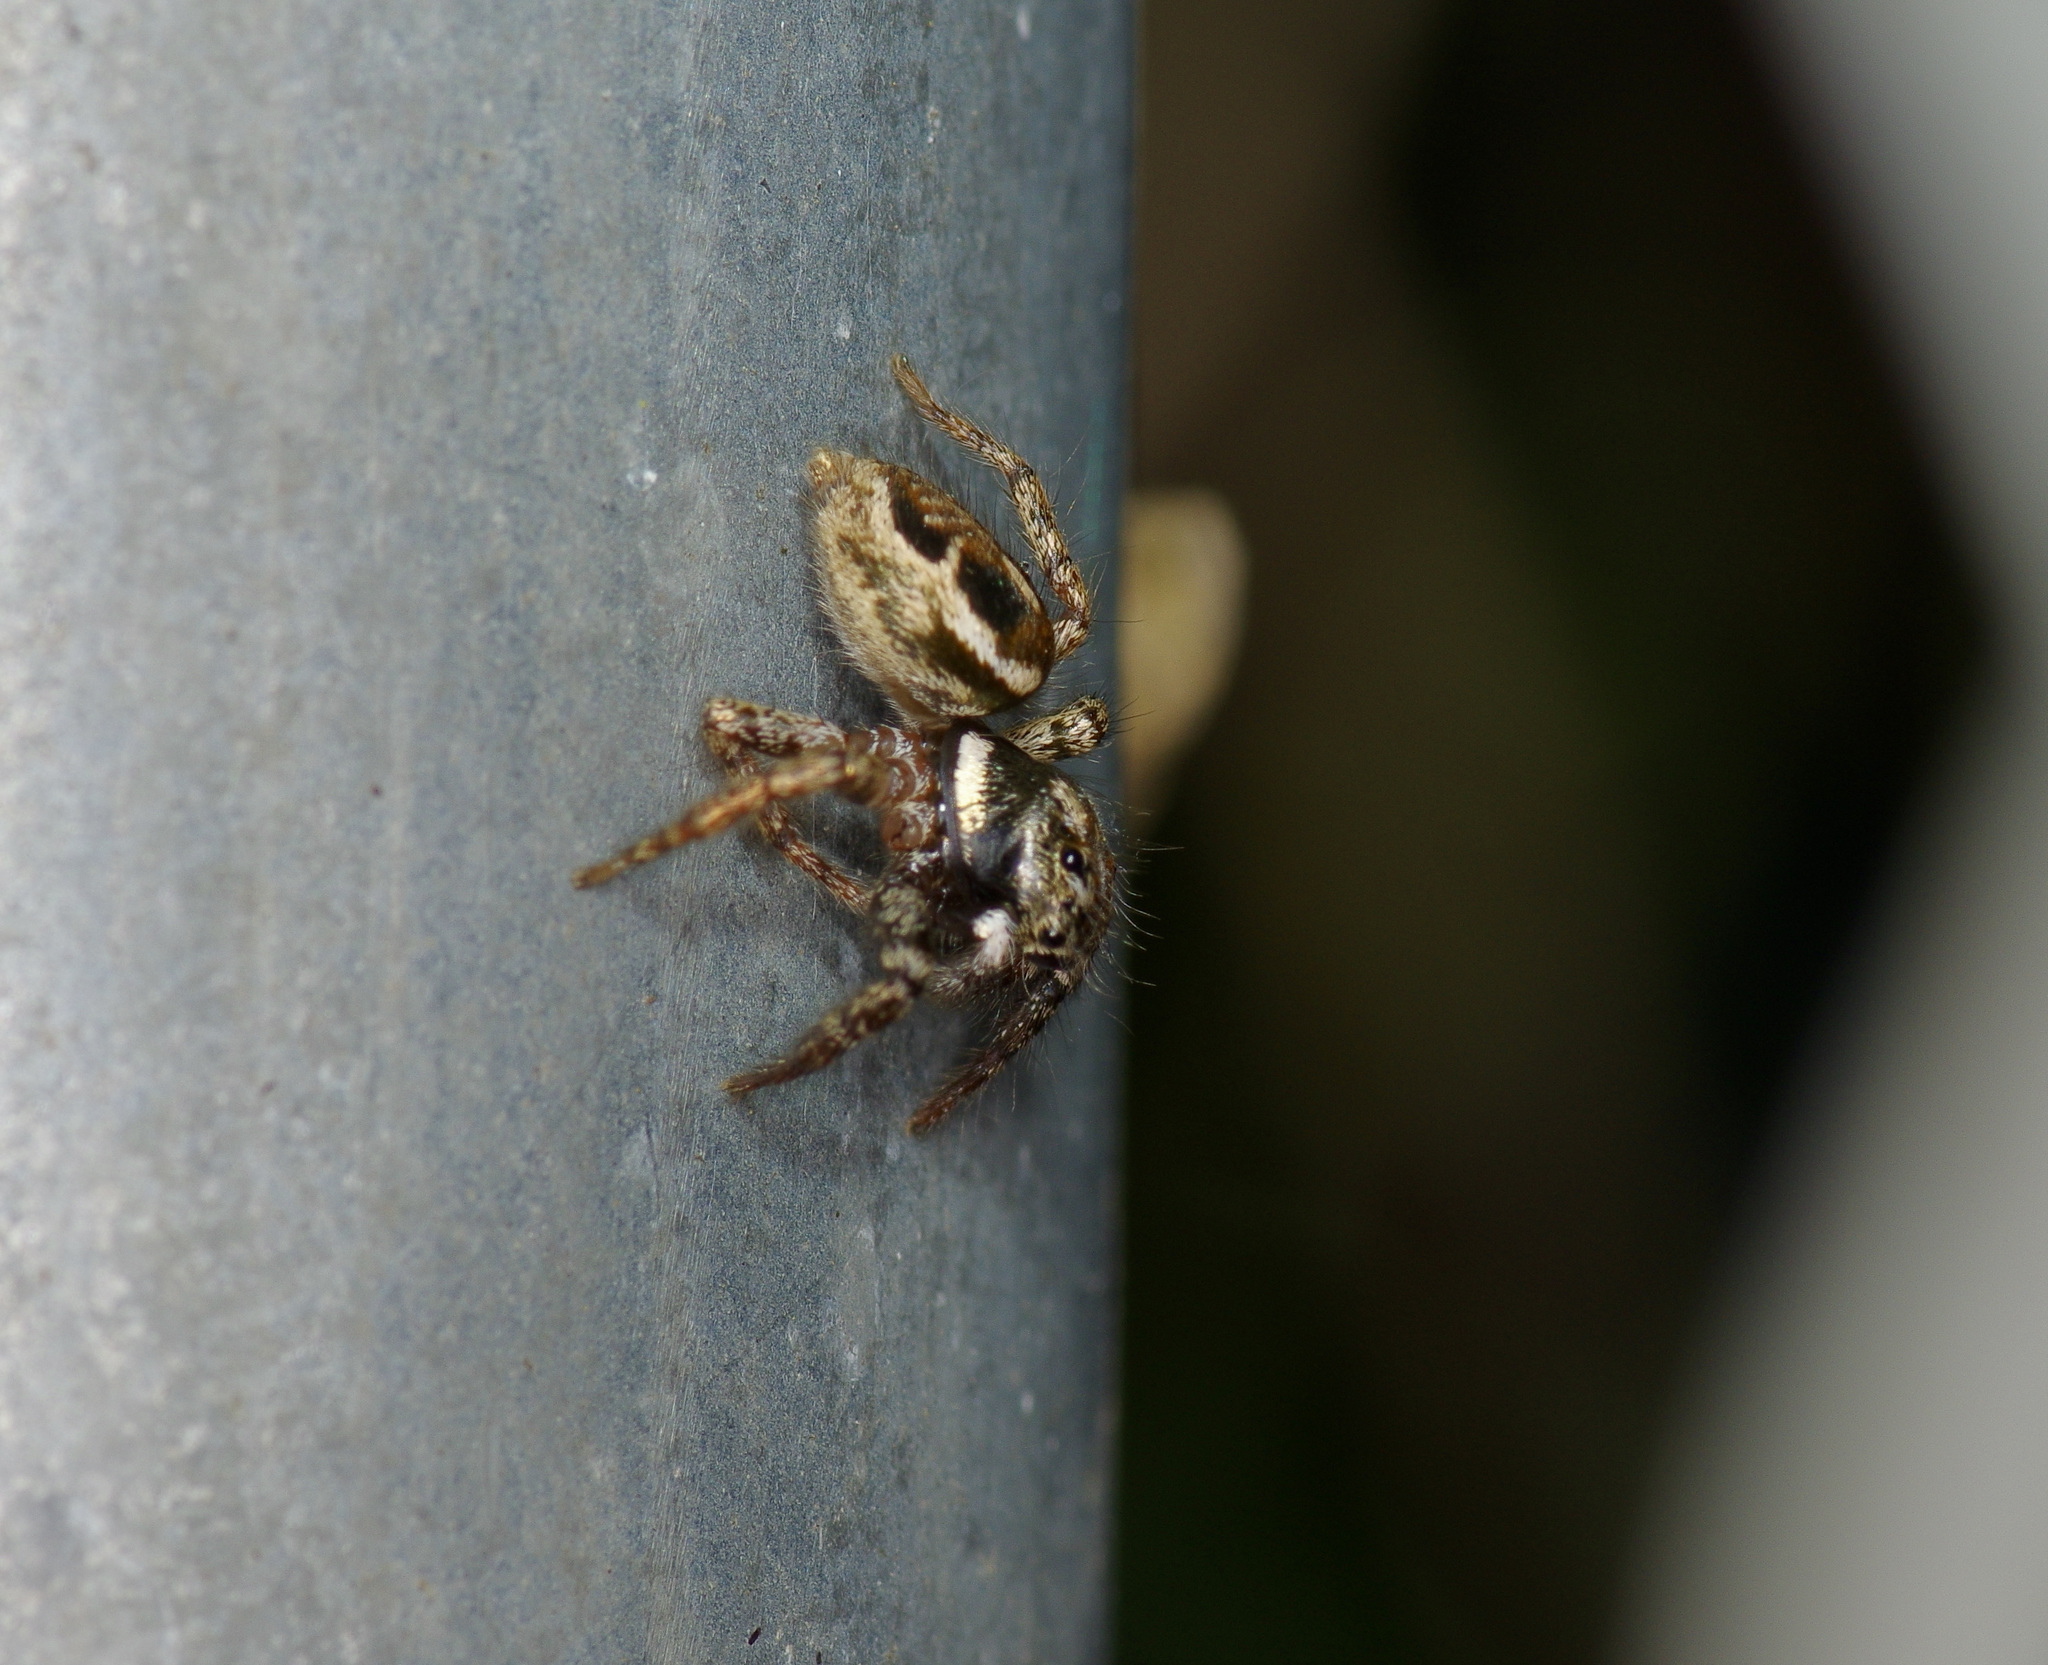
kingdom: Animalia
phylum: Arthropoda
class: Arachnida
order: Araneae
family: Salticidae
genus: Anasaitis
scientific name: Anasaitis canosa
